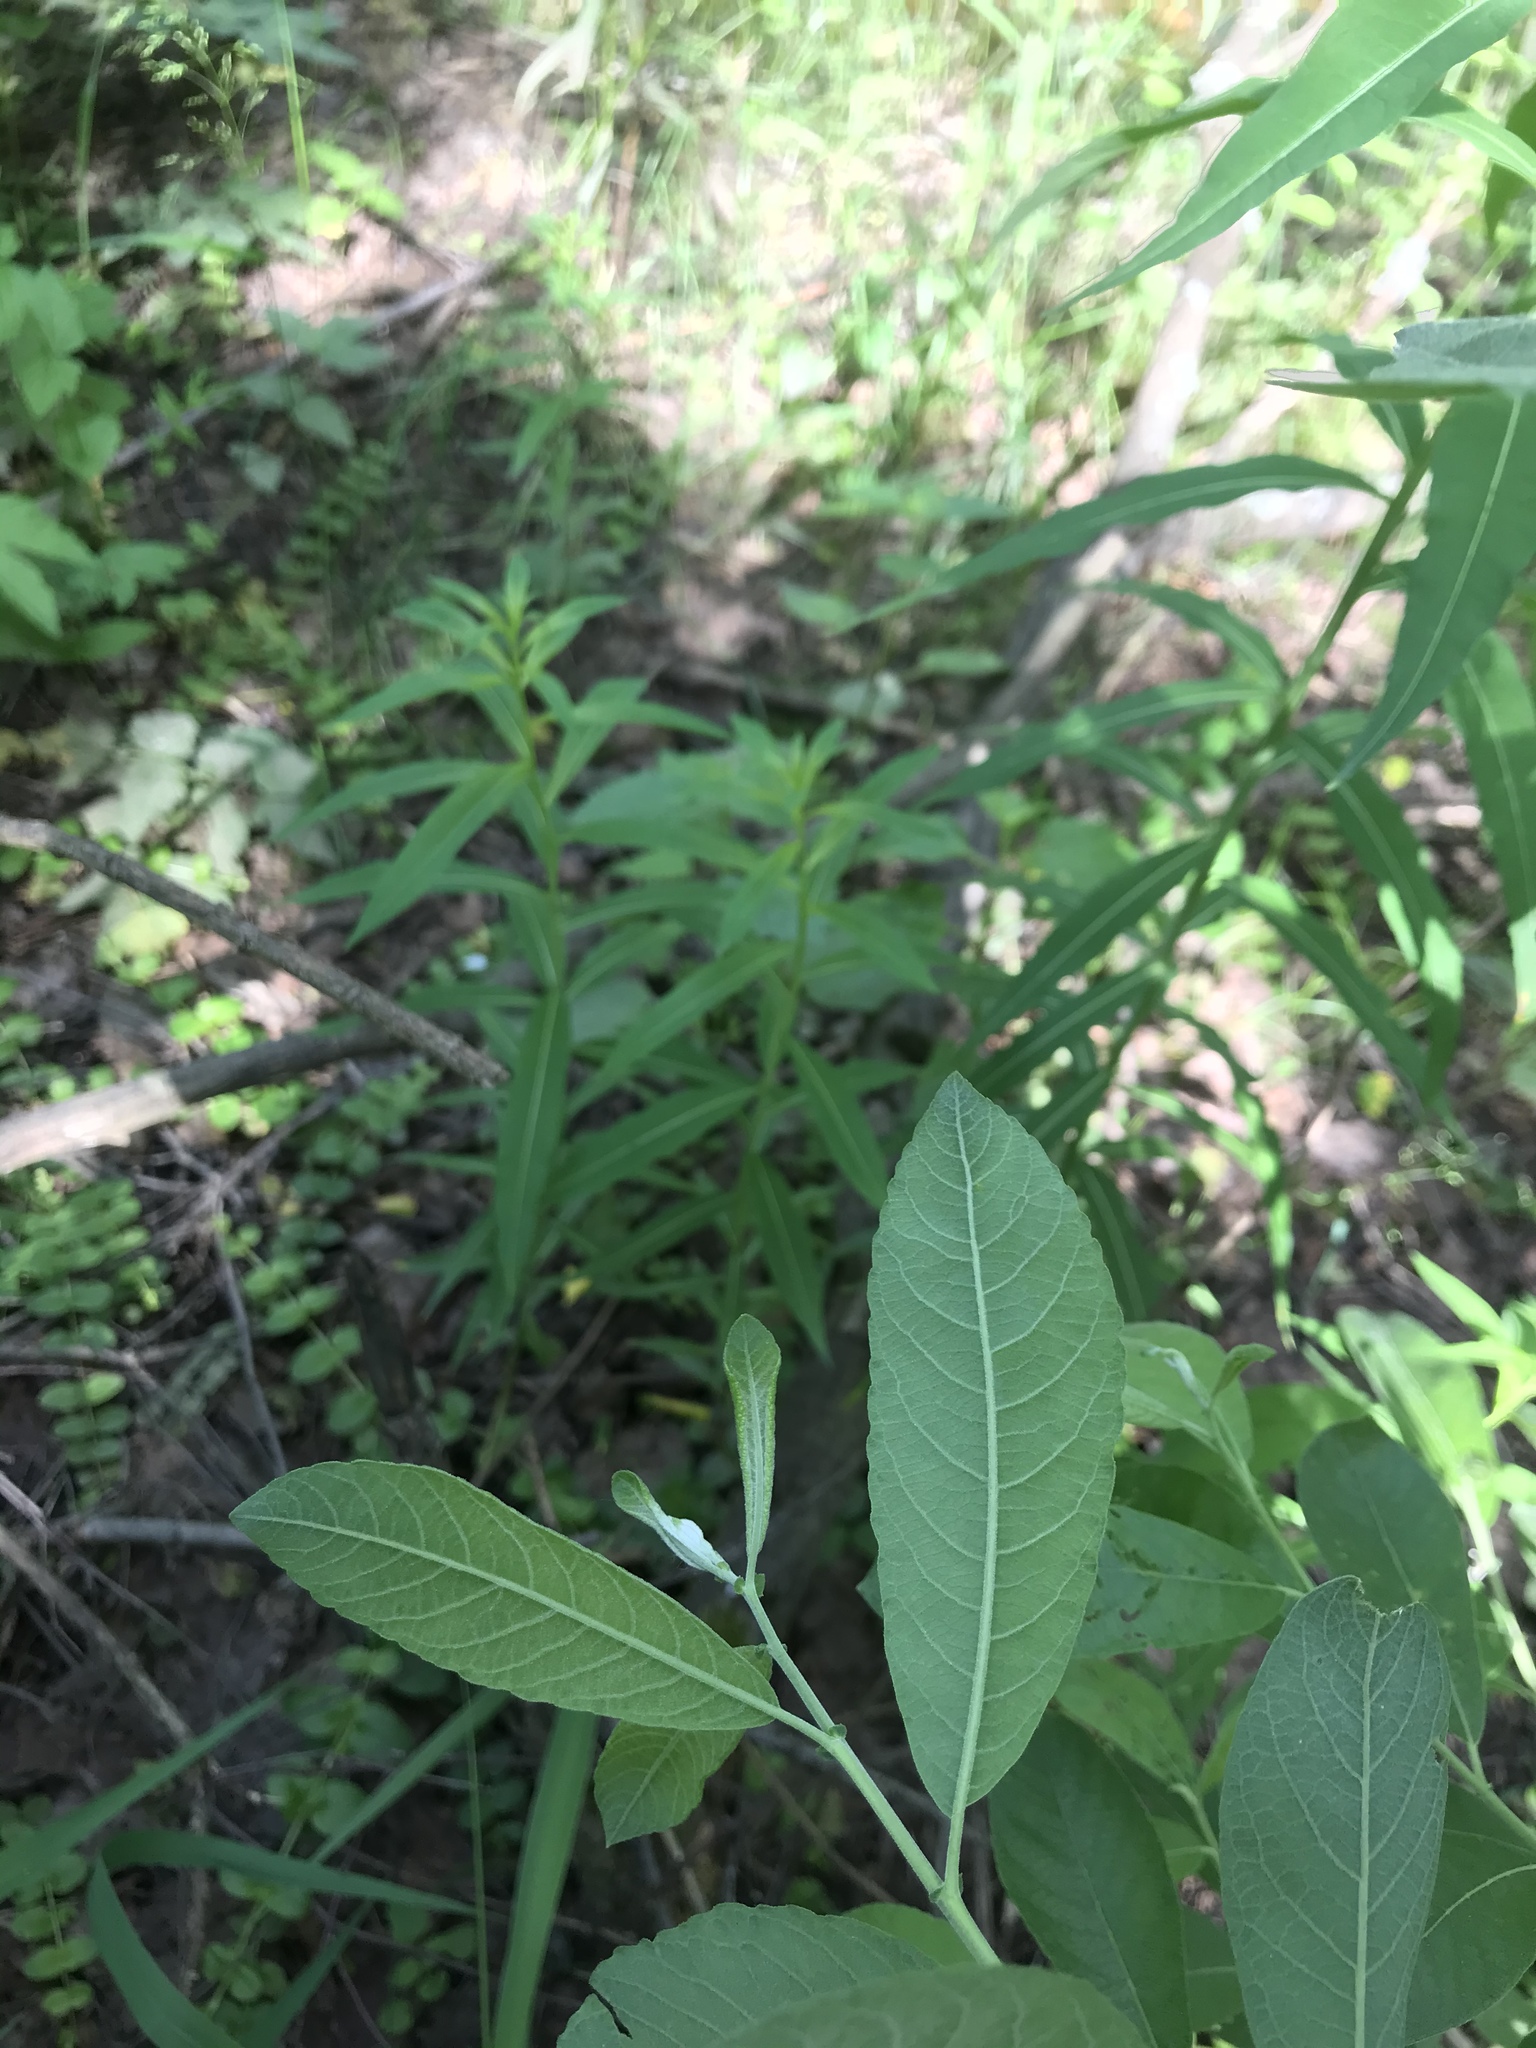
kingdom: Plantae
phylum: Tracheophyta
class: Magnoliopsida
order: Malpighiales
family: Salicaceae
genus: Salix
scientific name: Salix cinerea
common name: Common sallow
